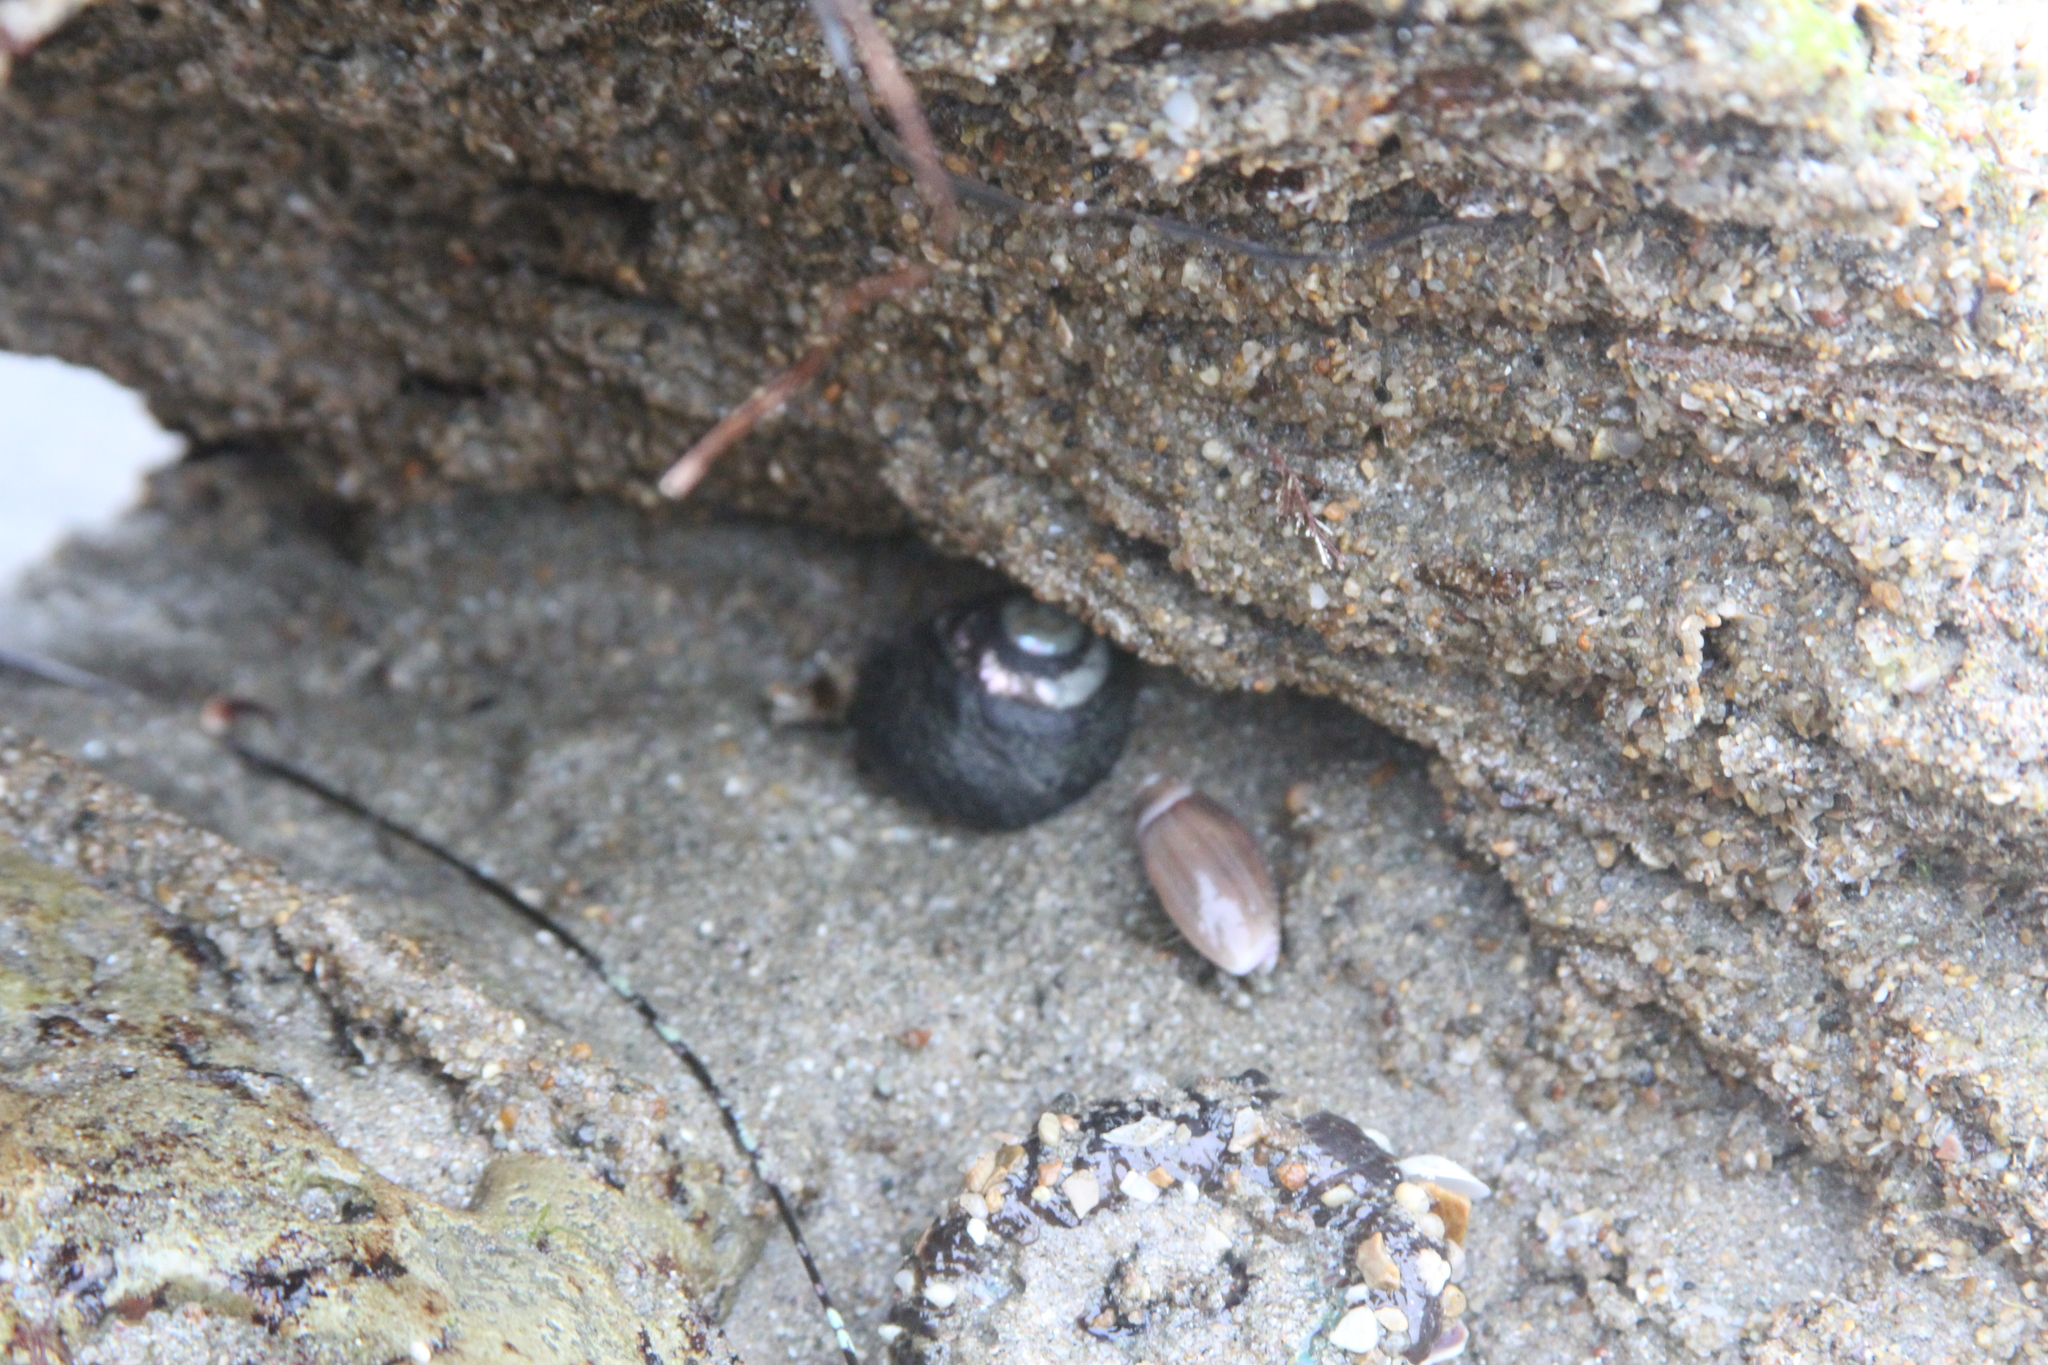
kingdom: Animalia
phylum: Mollusca
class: Gastropoda
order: Trochida
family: Tegulidae
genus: Tegula
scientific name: Tegula funebralis
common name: Black tegula
